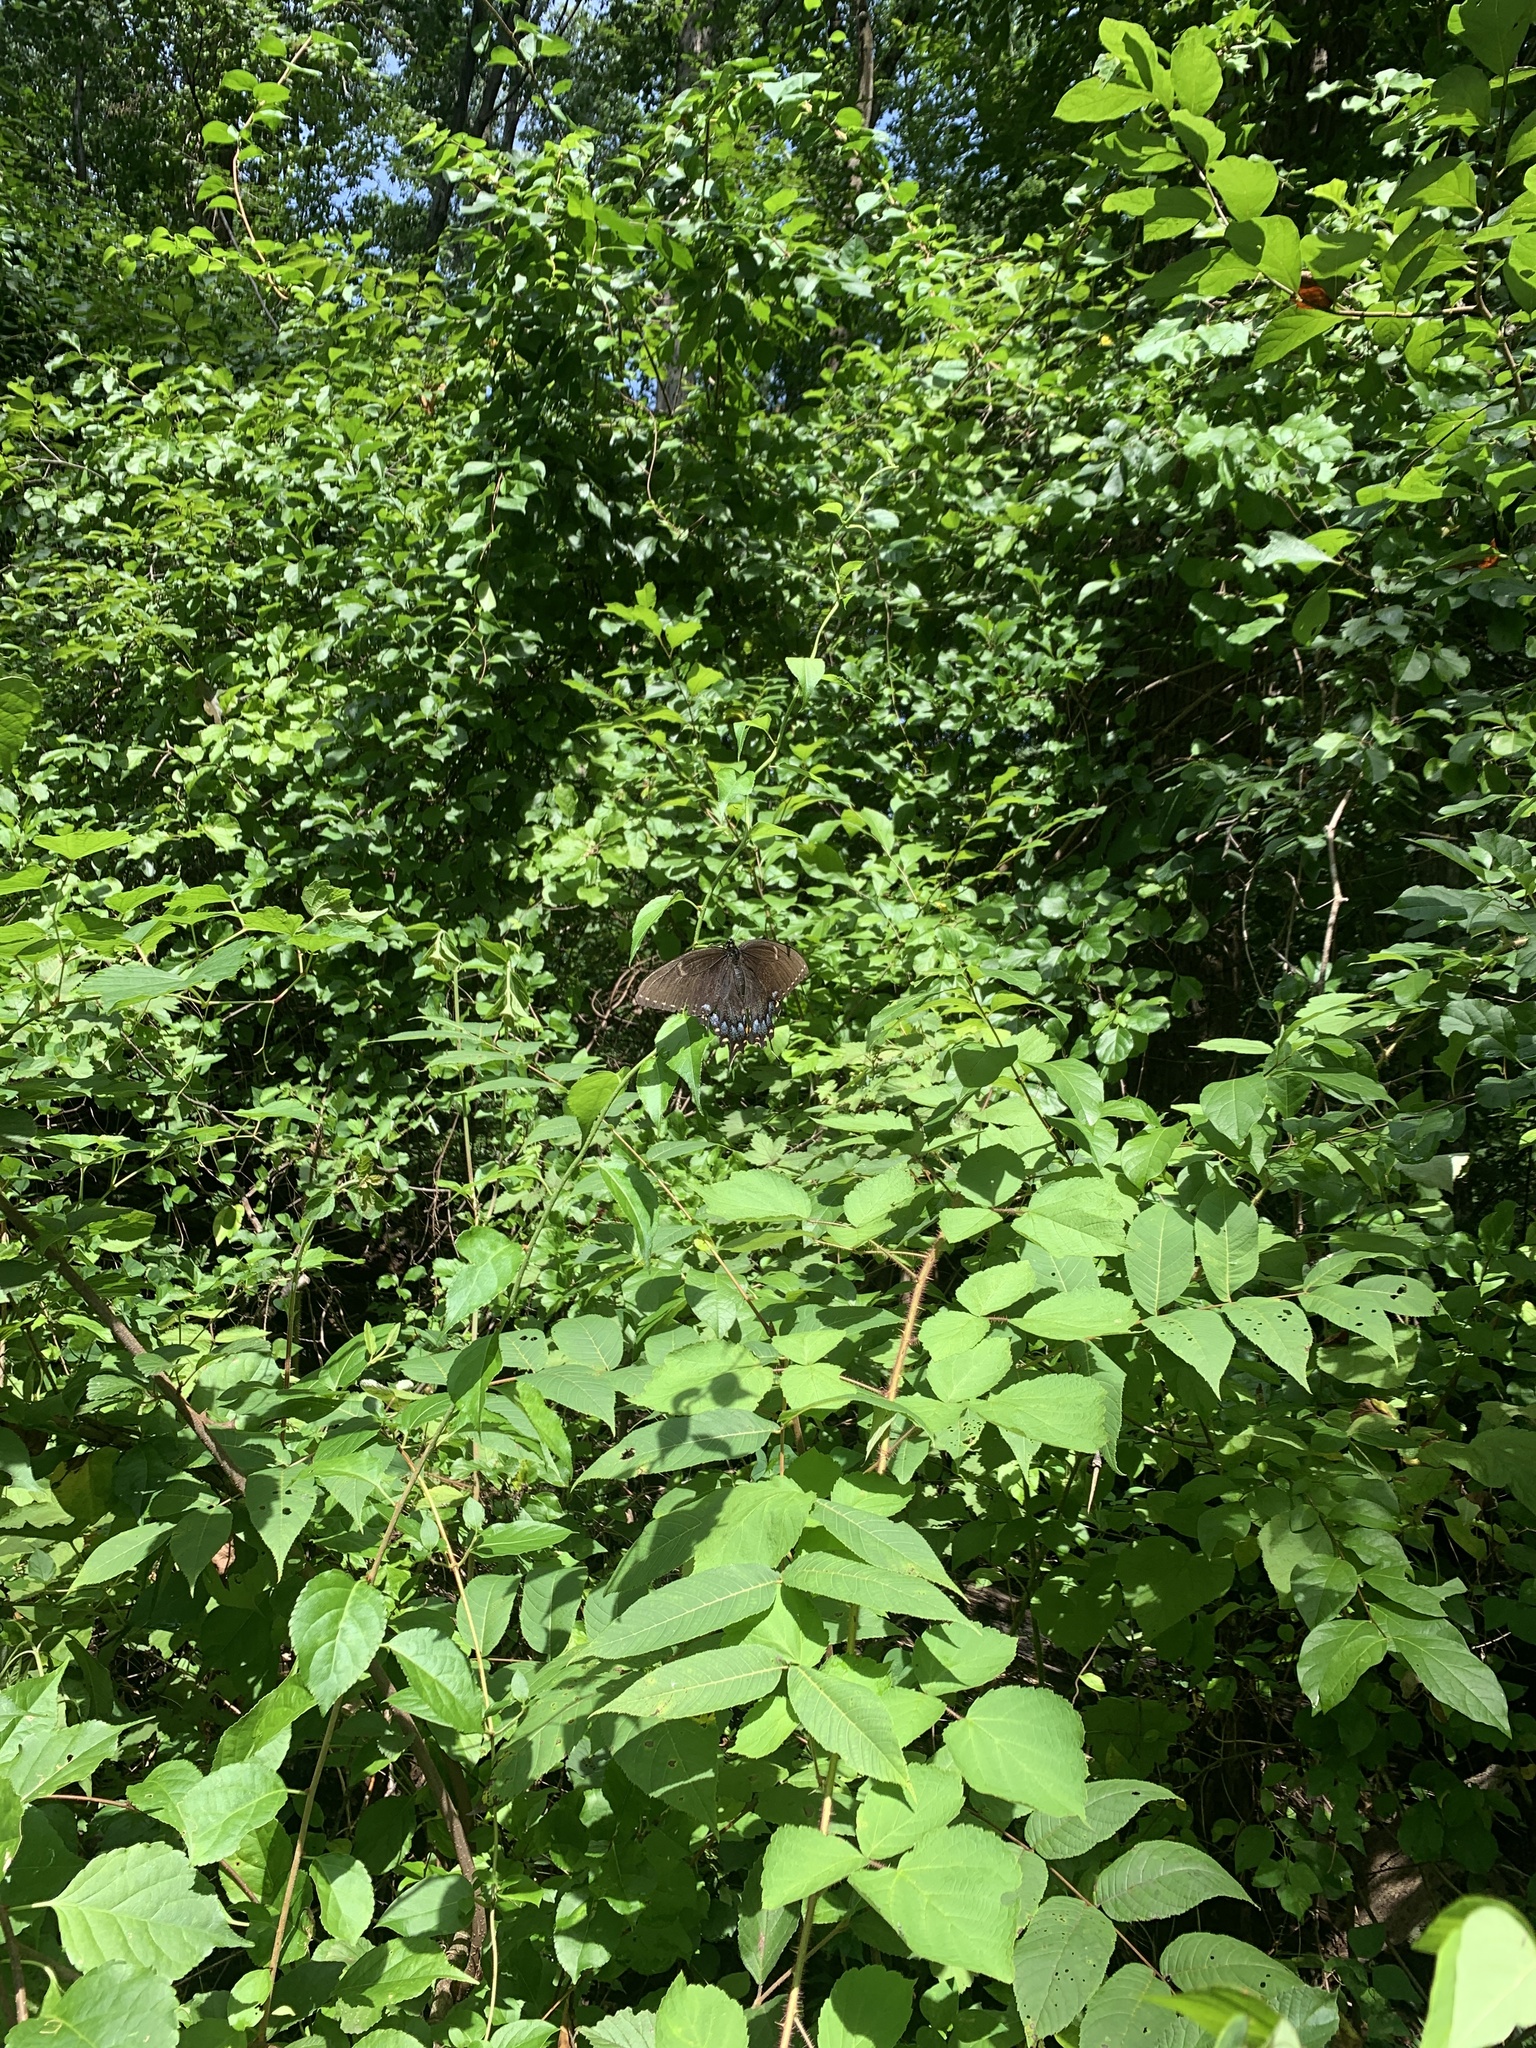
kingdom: Animalia
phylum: Arthropoda
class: Insecta
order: Lepidoptera
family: Papilionidae
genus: Papilio
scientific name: Papilio glaucus
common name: Tiger swallowtail
